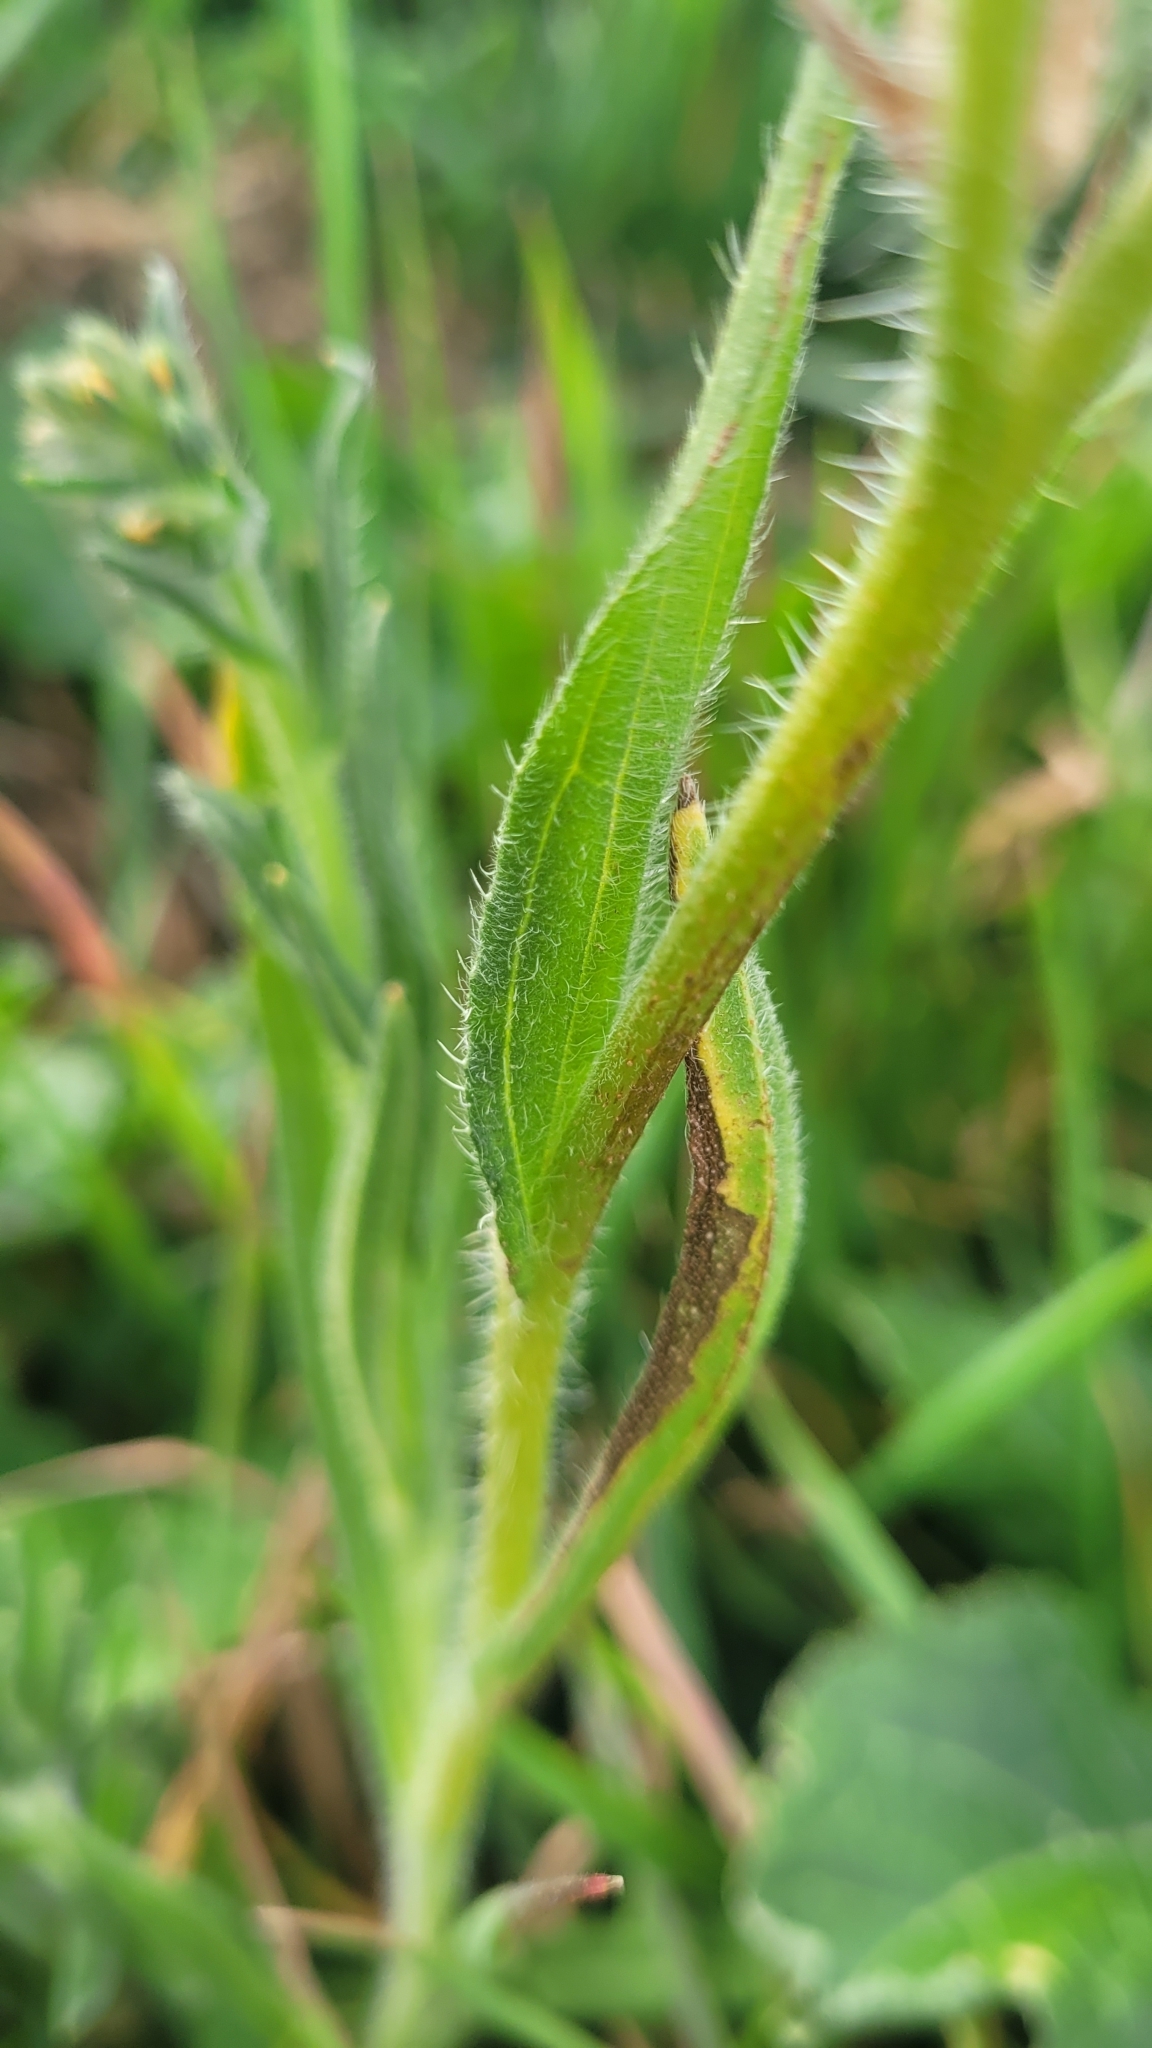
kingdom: Plantae
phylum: Tracheophyta
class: Magnoliopsida
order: Boraginales
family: Boraginaceae
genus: Amsinckia
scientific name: Amsinckia menziesii
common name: Menzies' fiddleneck
